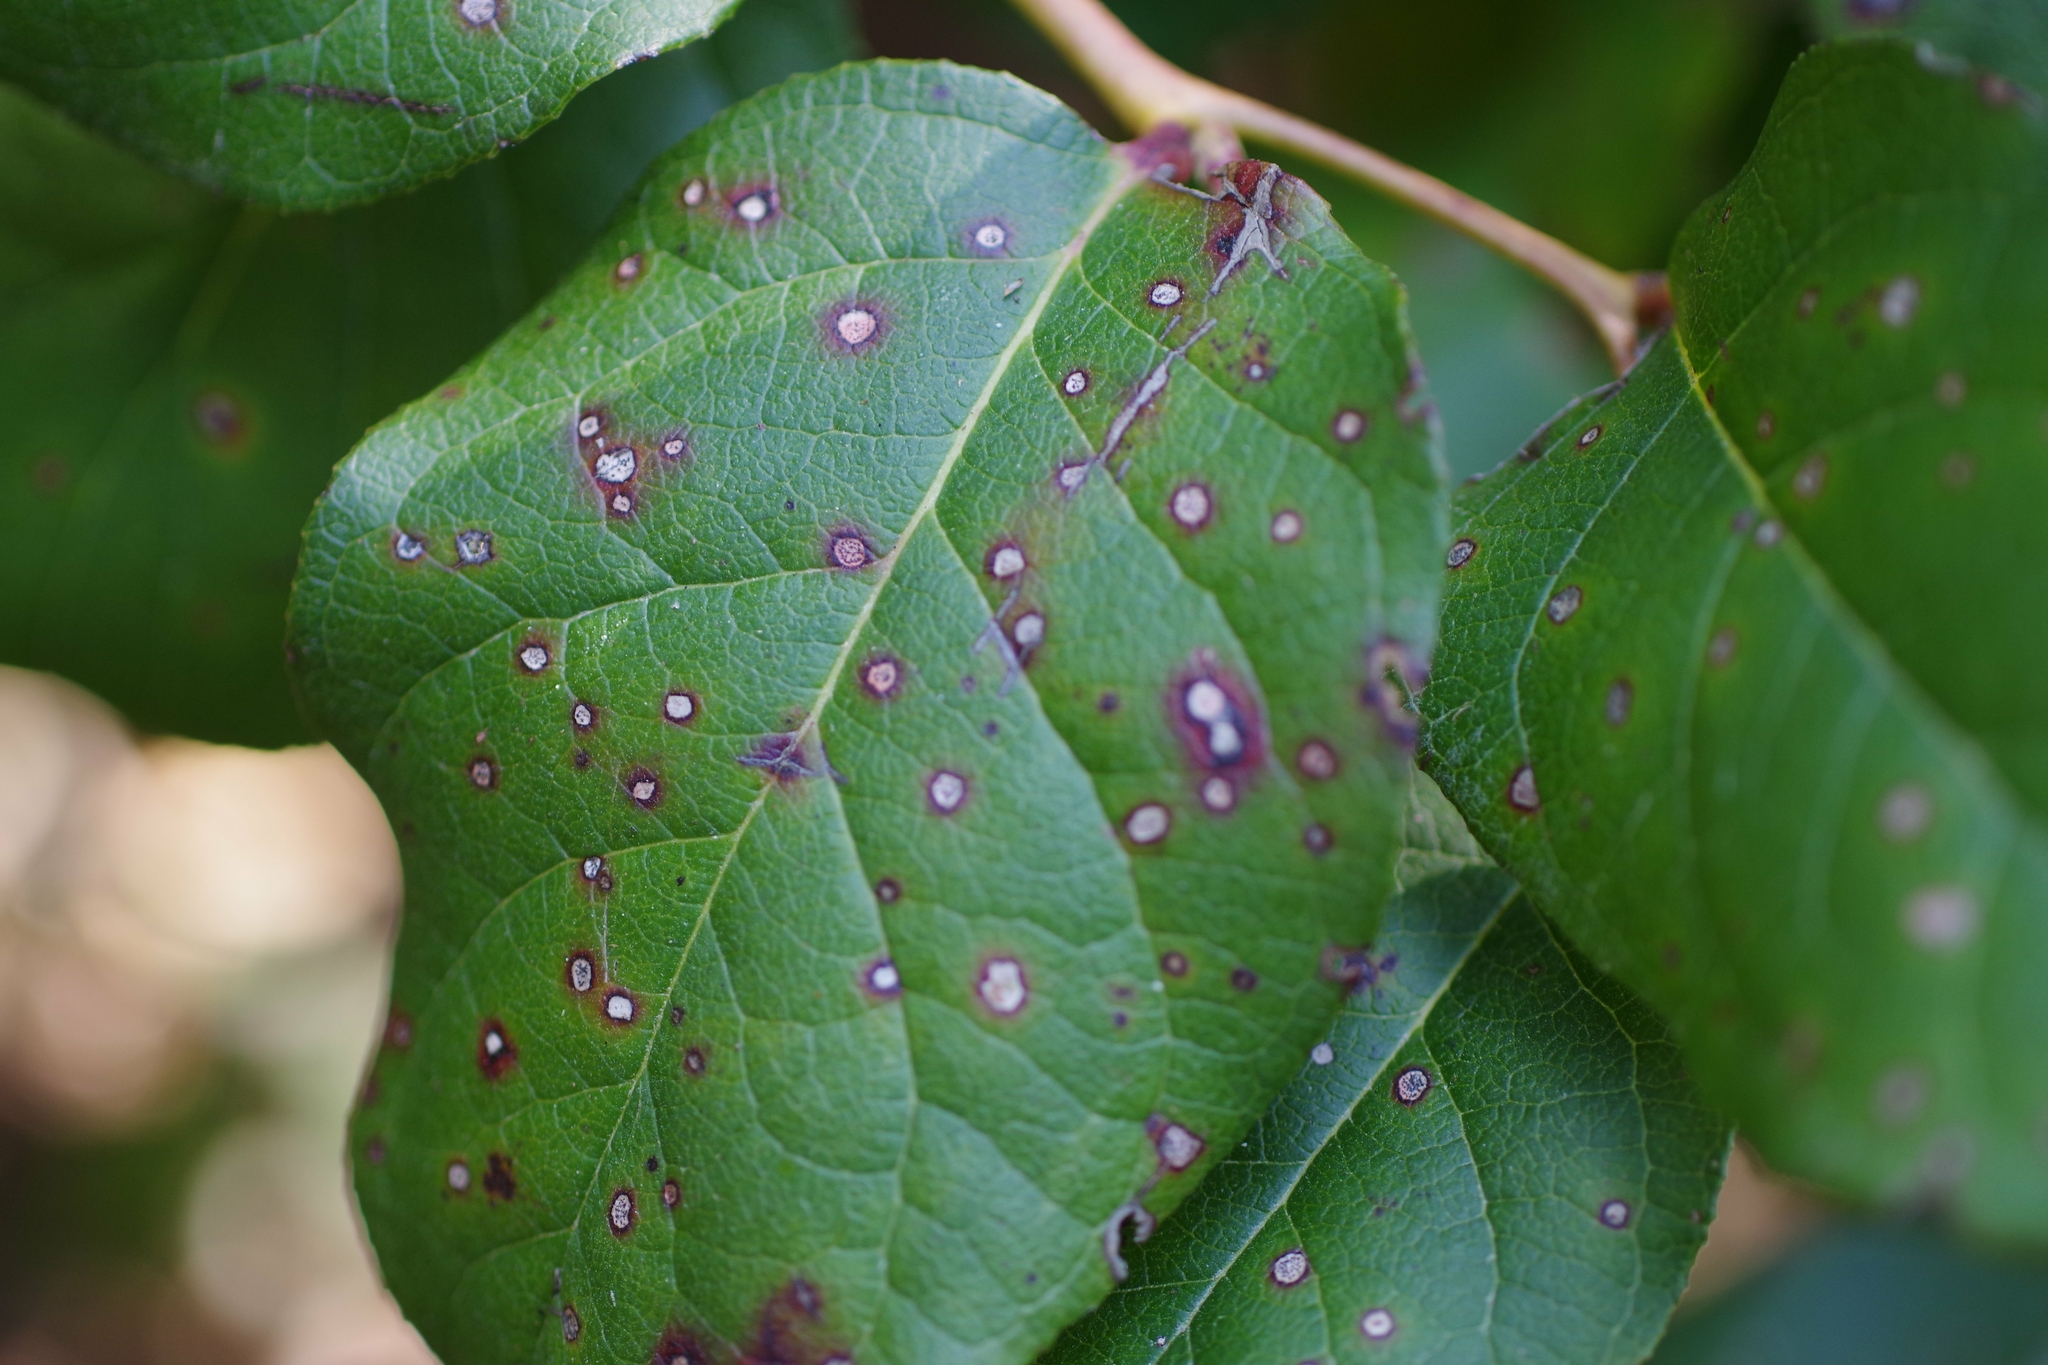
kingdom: Plantae
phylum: Tracheophyta
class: Magnoliopsida
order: Ericales
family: Ericaceae
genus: Gaultheria
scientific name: Gaultheria shallon
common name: Shallon
